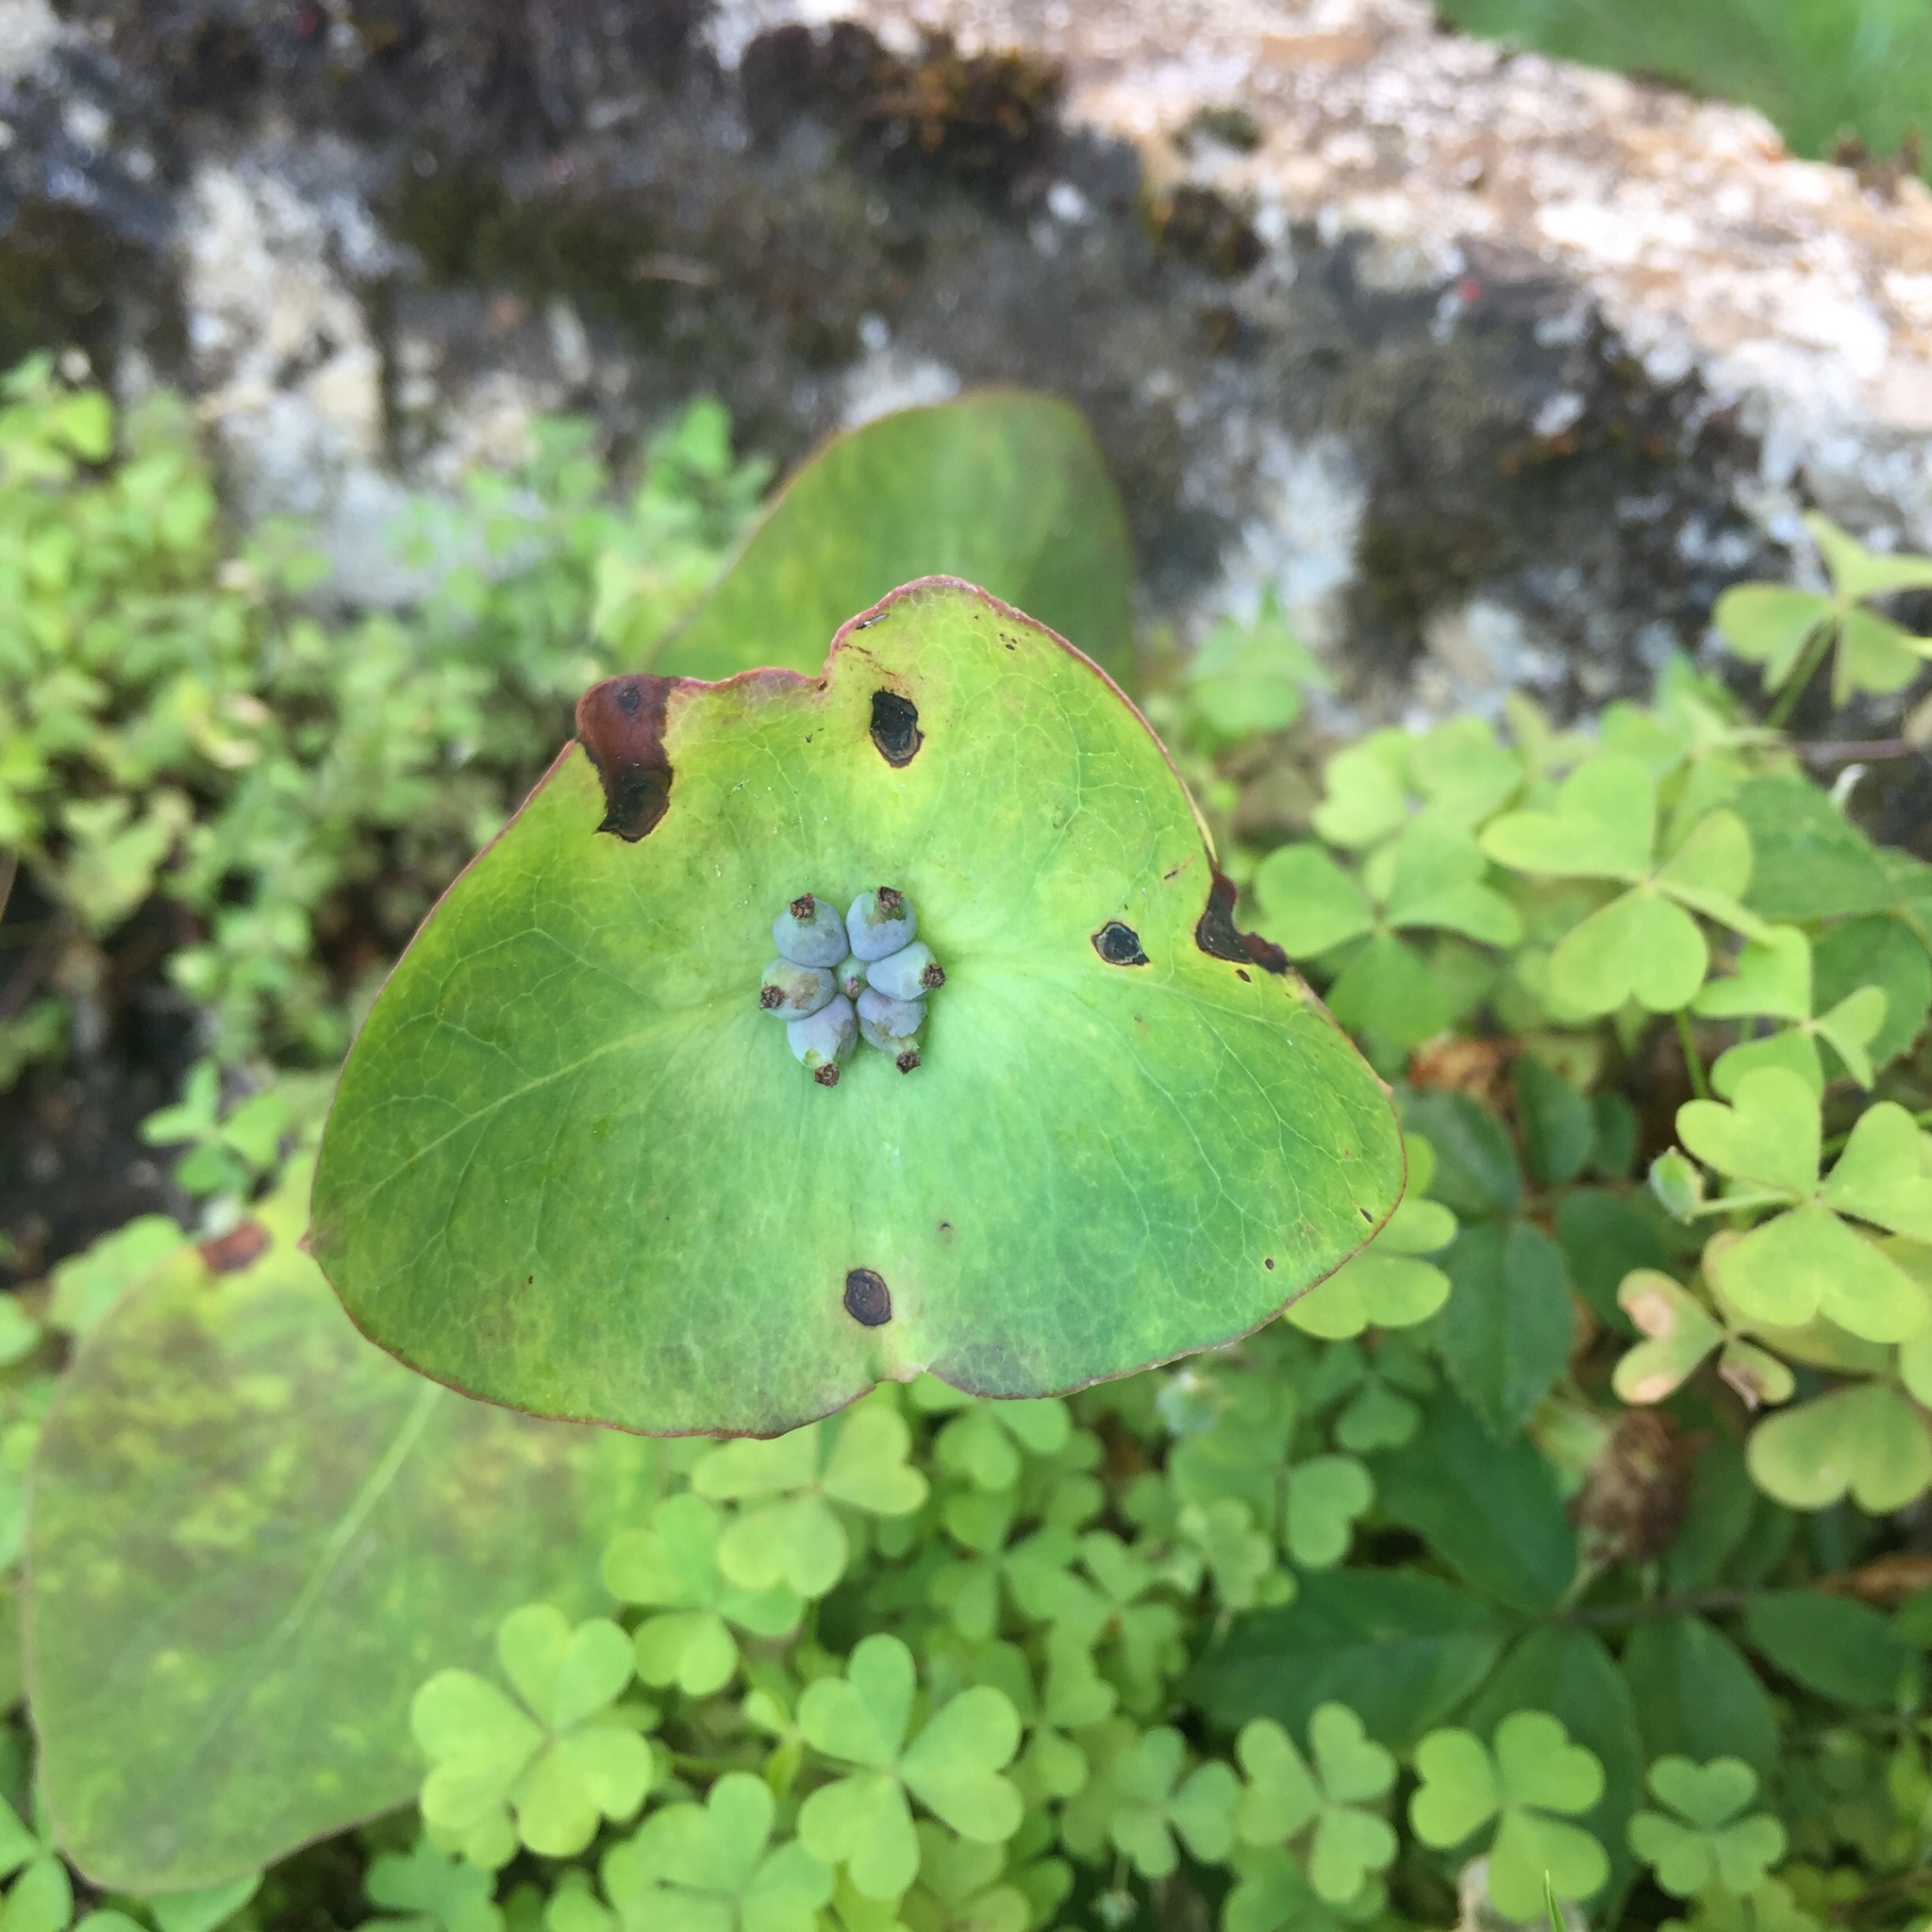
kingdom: Plantae
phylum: Tracheophyta
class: Magnoliopsida
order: Dipsacales
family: Caprifoliaceae
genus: Lonicera
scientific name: Lonicera caprifolium
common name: Perfoliate honeysuckle
